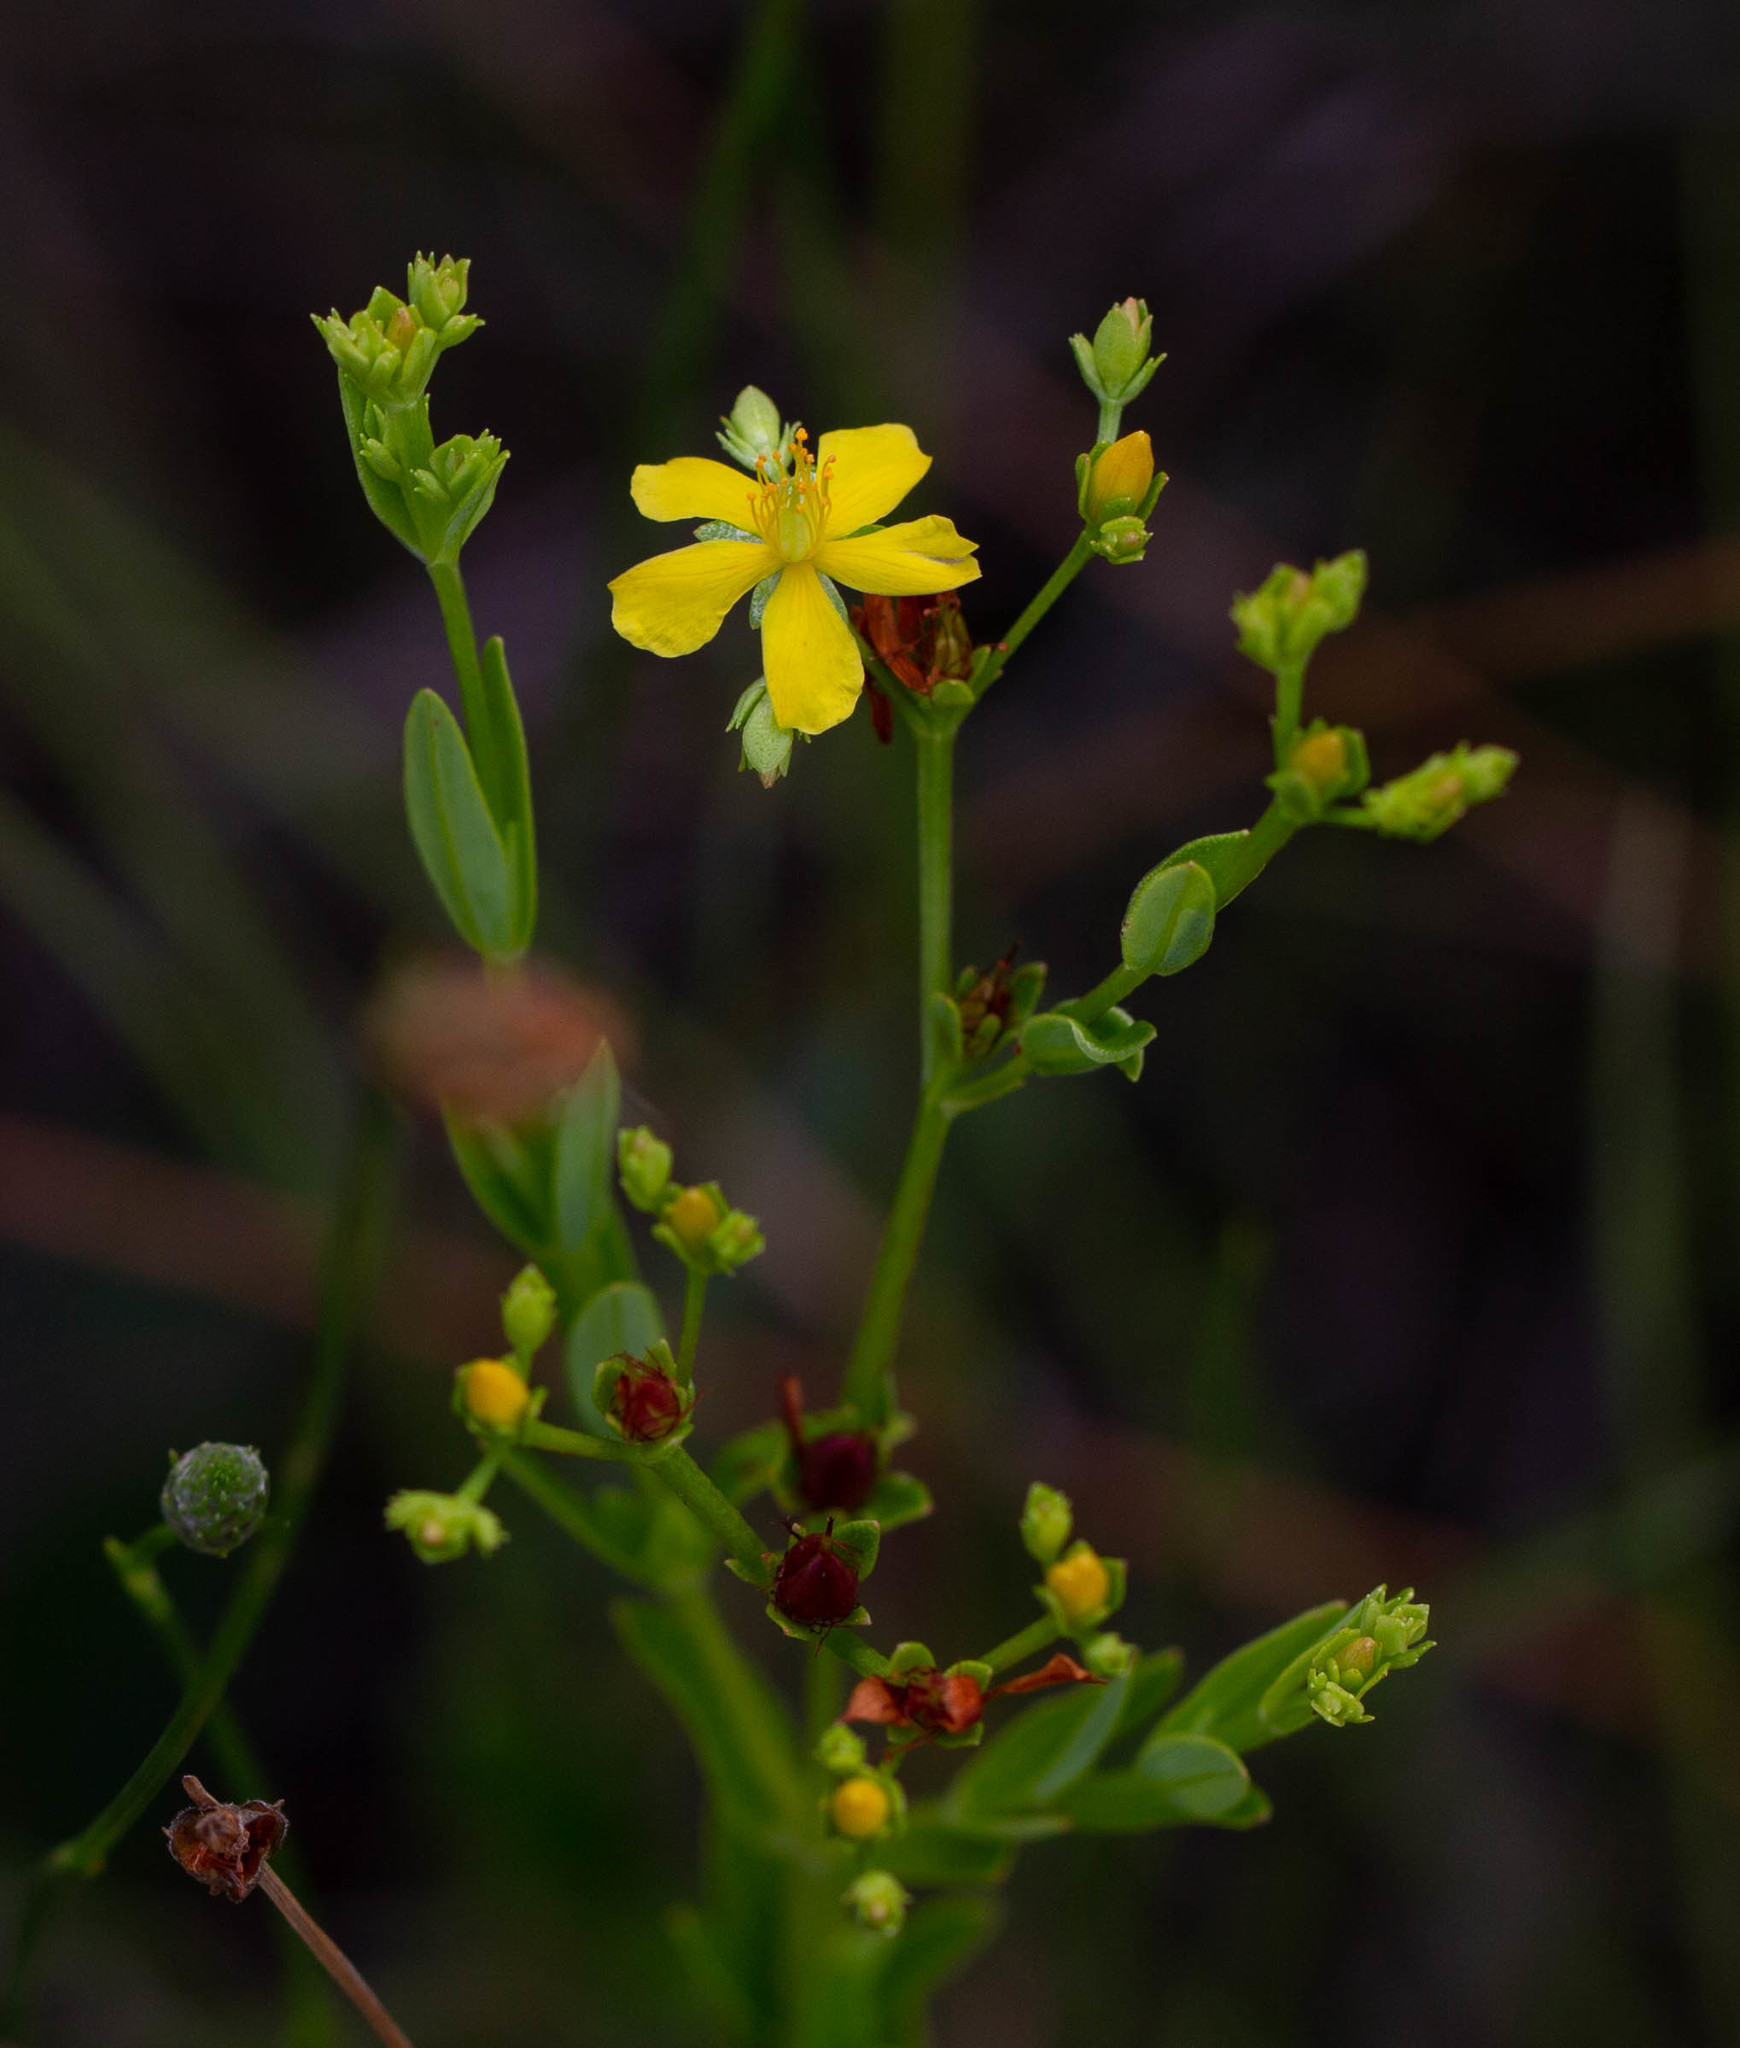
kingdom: Plantae
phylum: Tracheophyta
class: Magnoliopsida
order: Malpighiales
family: Hypericaceae
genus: Hypericum
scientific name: Hypericum cistifolium
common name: Round-pod st. john's-wort
